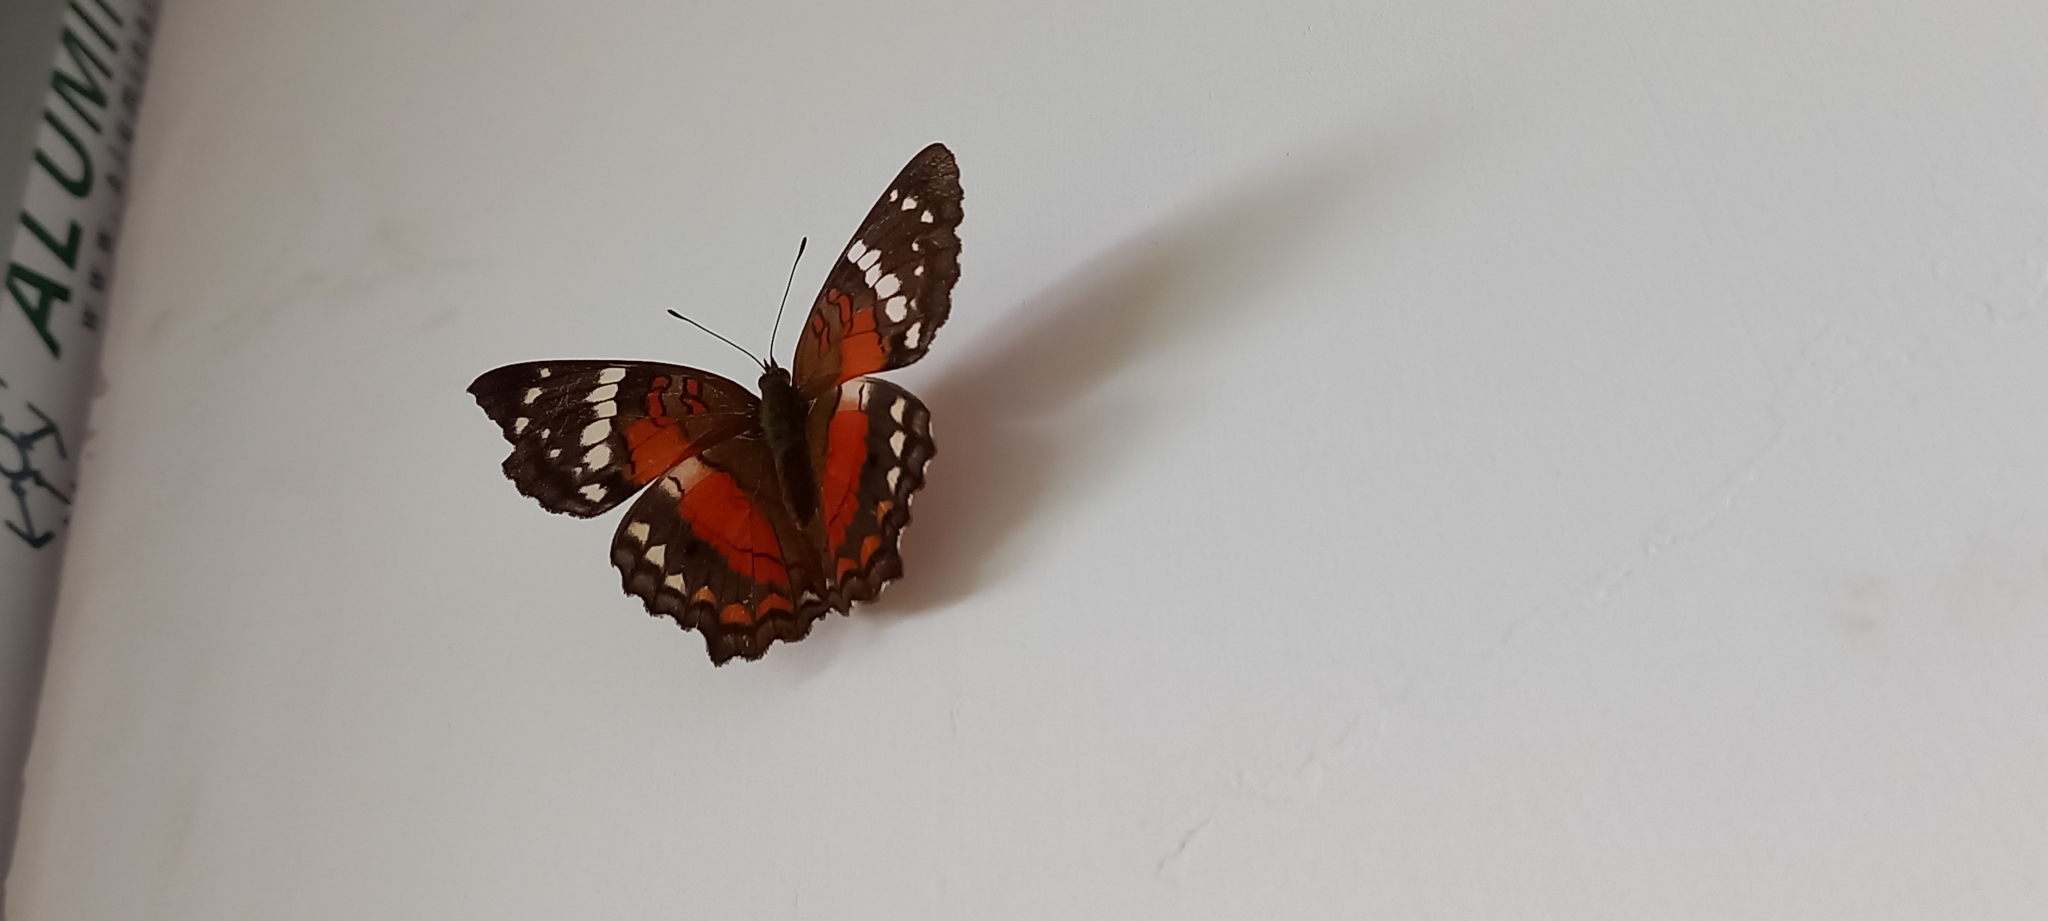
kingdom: Animalia
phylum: Arthropoda
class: Insecta
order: Lepidoptera
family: Nymphalidae
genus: Anartia
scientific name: Anartia amathea
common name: Red peacock
